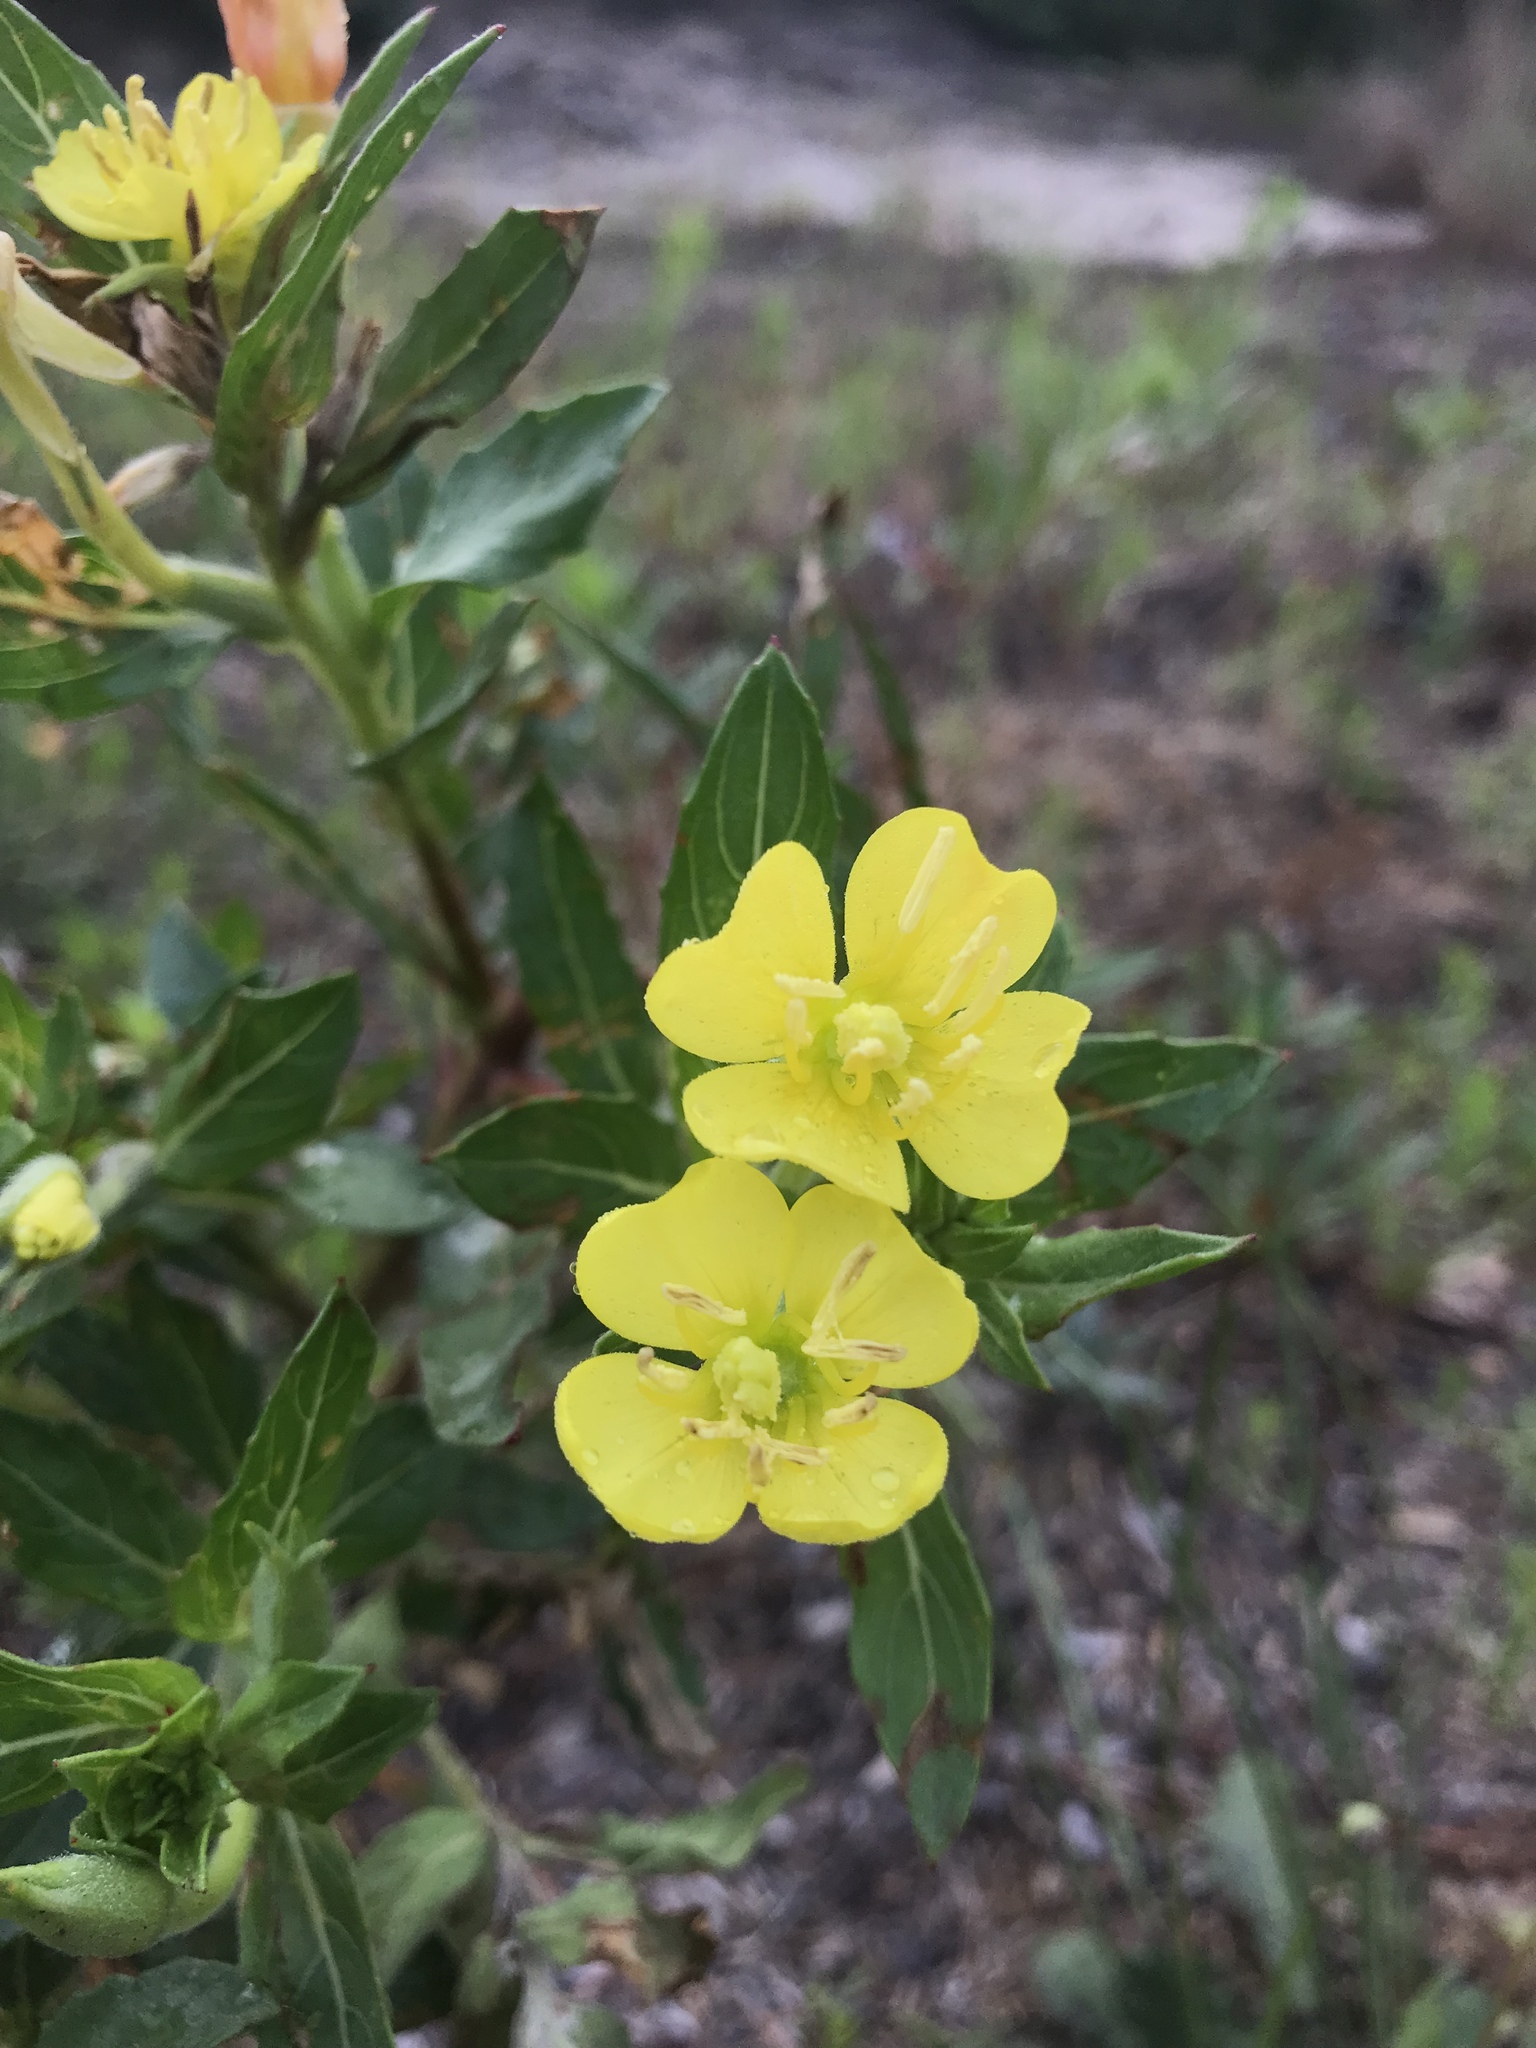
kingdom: Plantae
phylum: Tracheophyta
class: Magnoliopsida
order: Myrtales
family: Onagraceae
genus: Oenothera
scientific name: Oenothera biennis
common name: Common evening-primrose
